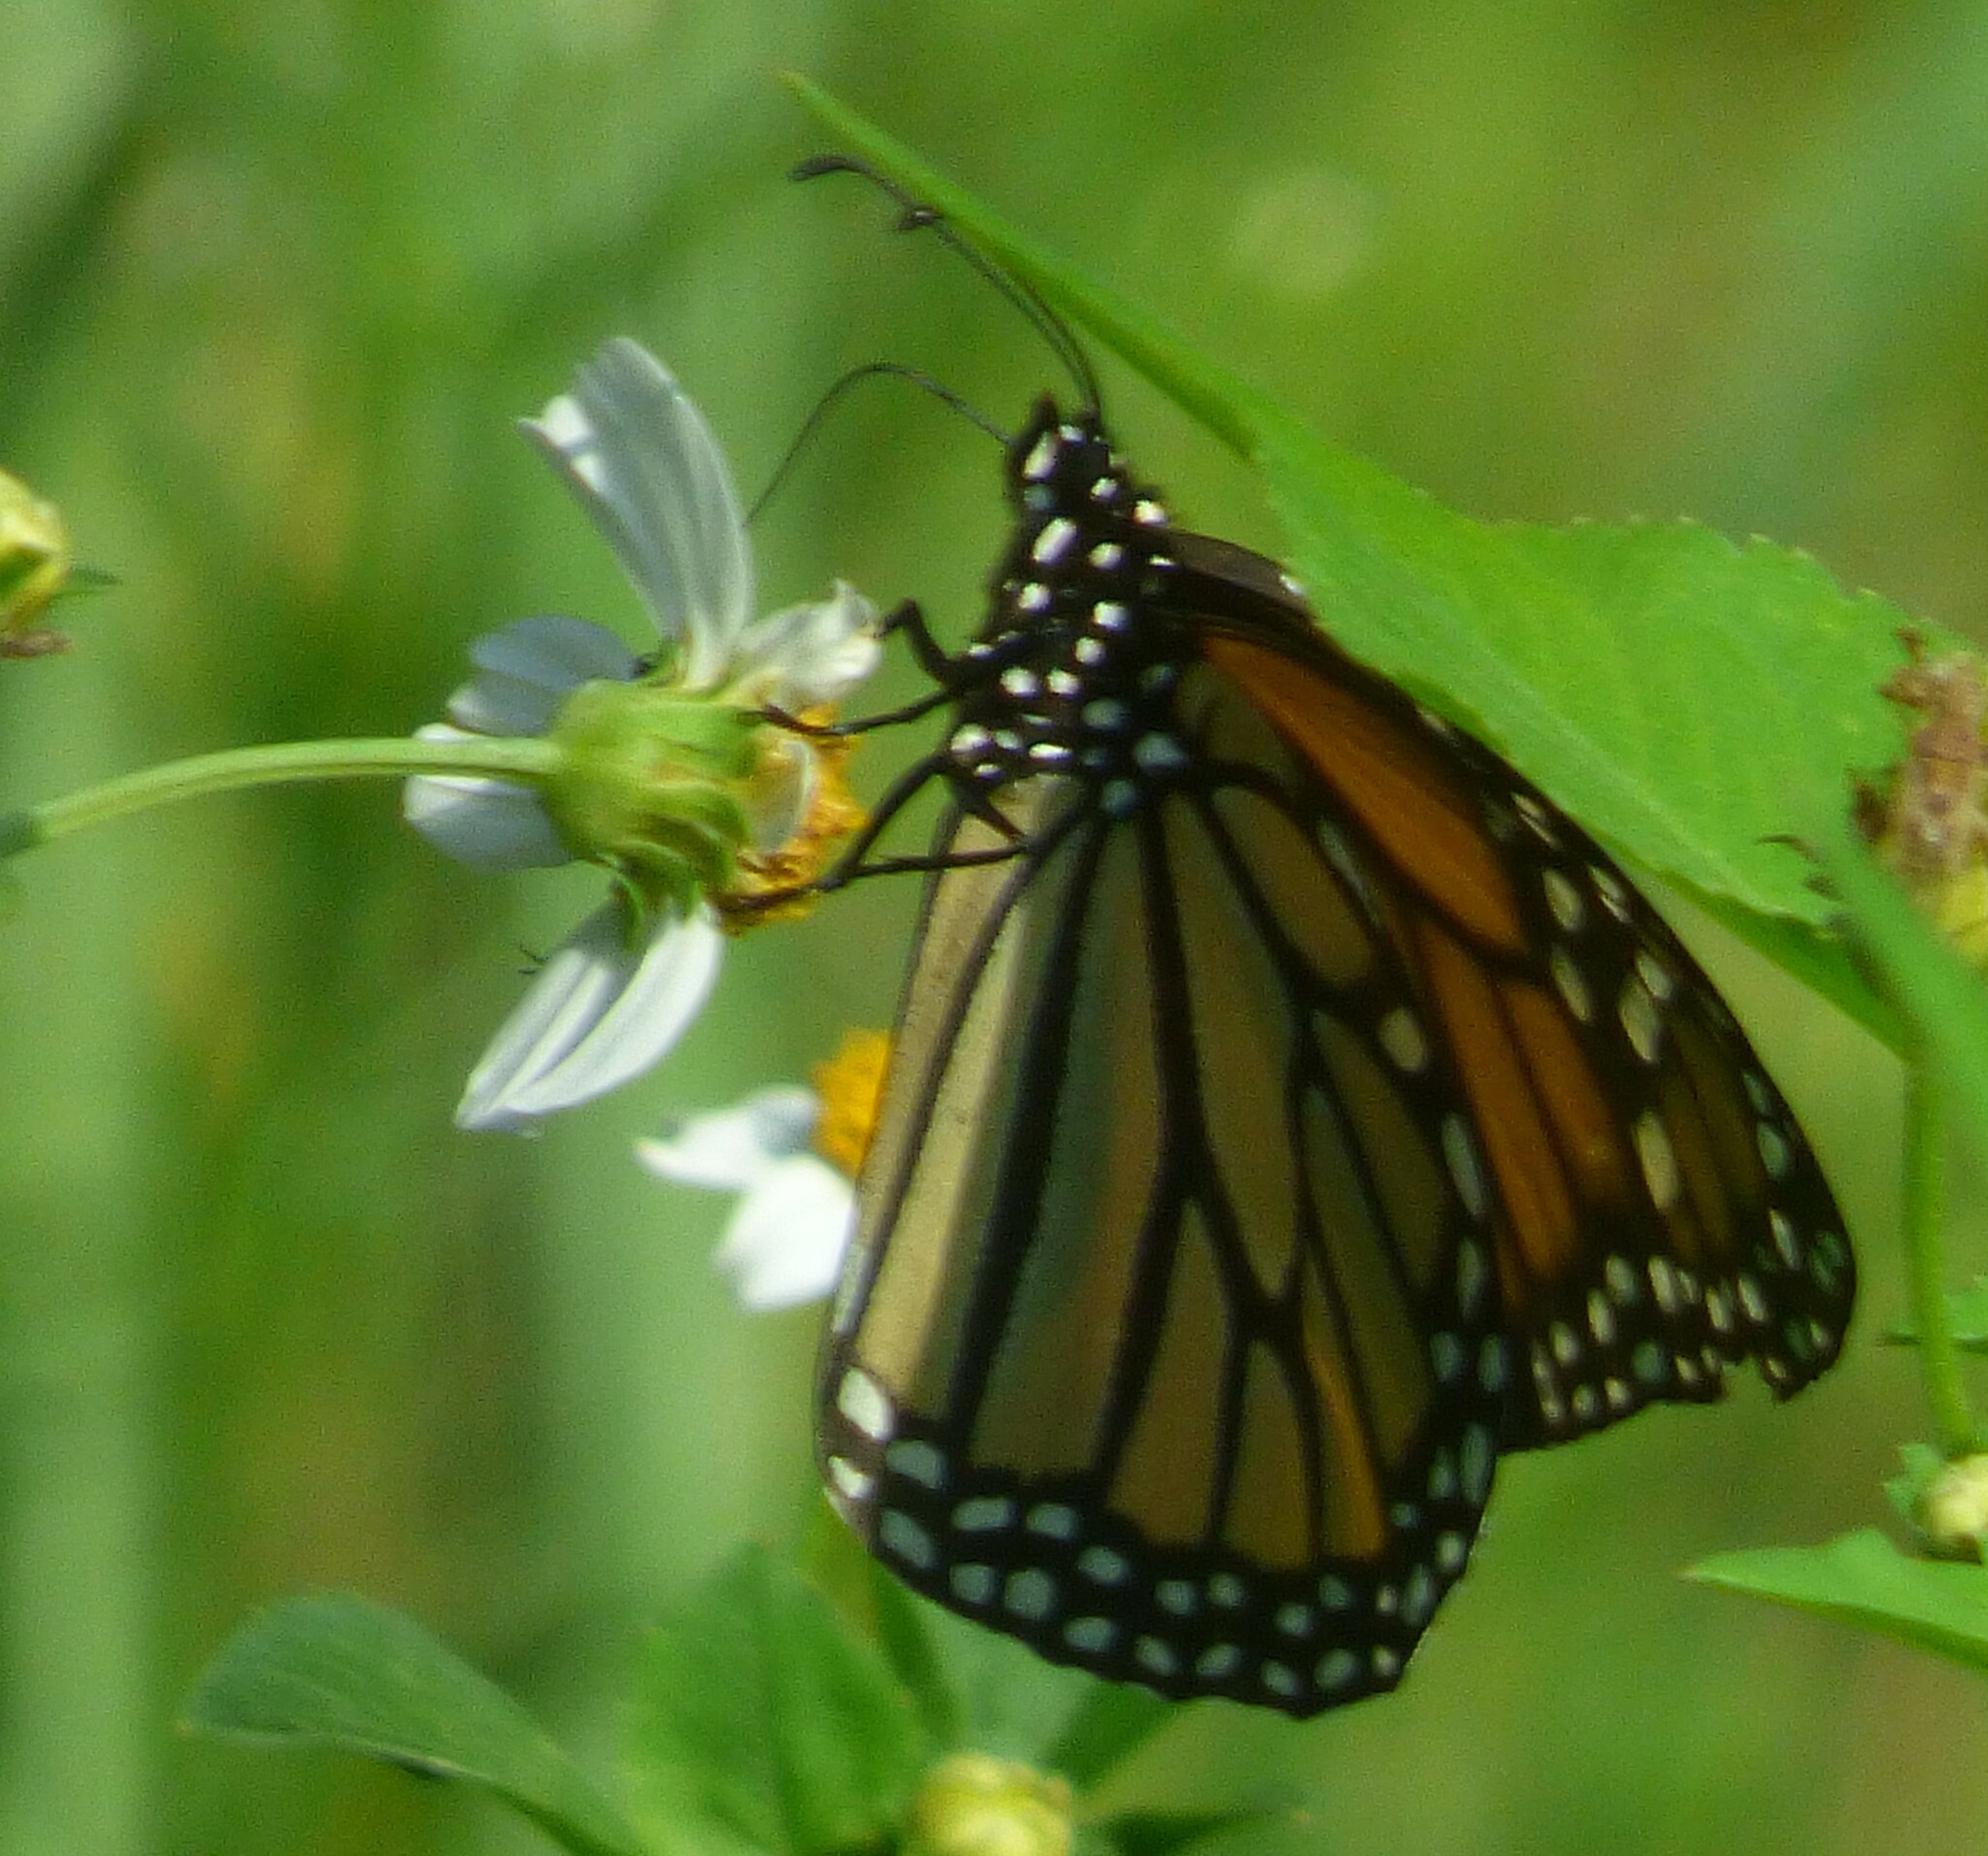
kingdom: Animalia
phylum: Arthropoda
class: Insecta
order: Lepidoptera
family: Nymphalidae
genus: Danaus
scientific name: Danaus plexippus
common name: Monarch
